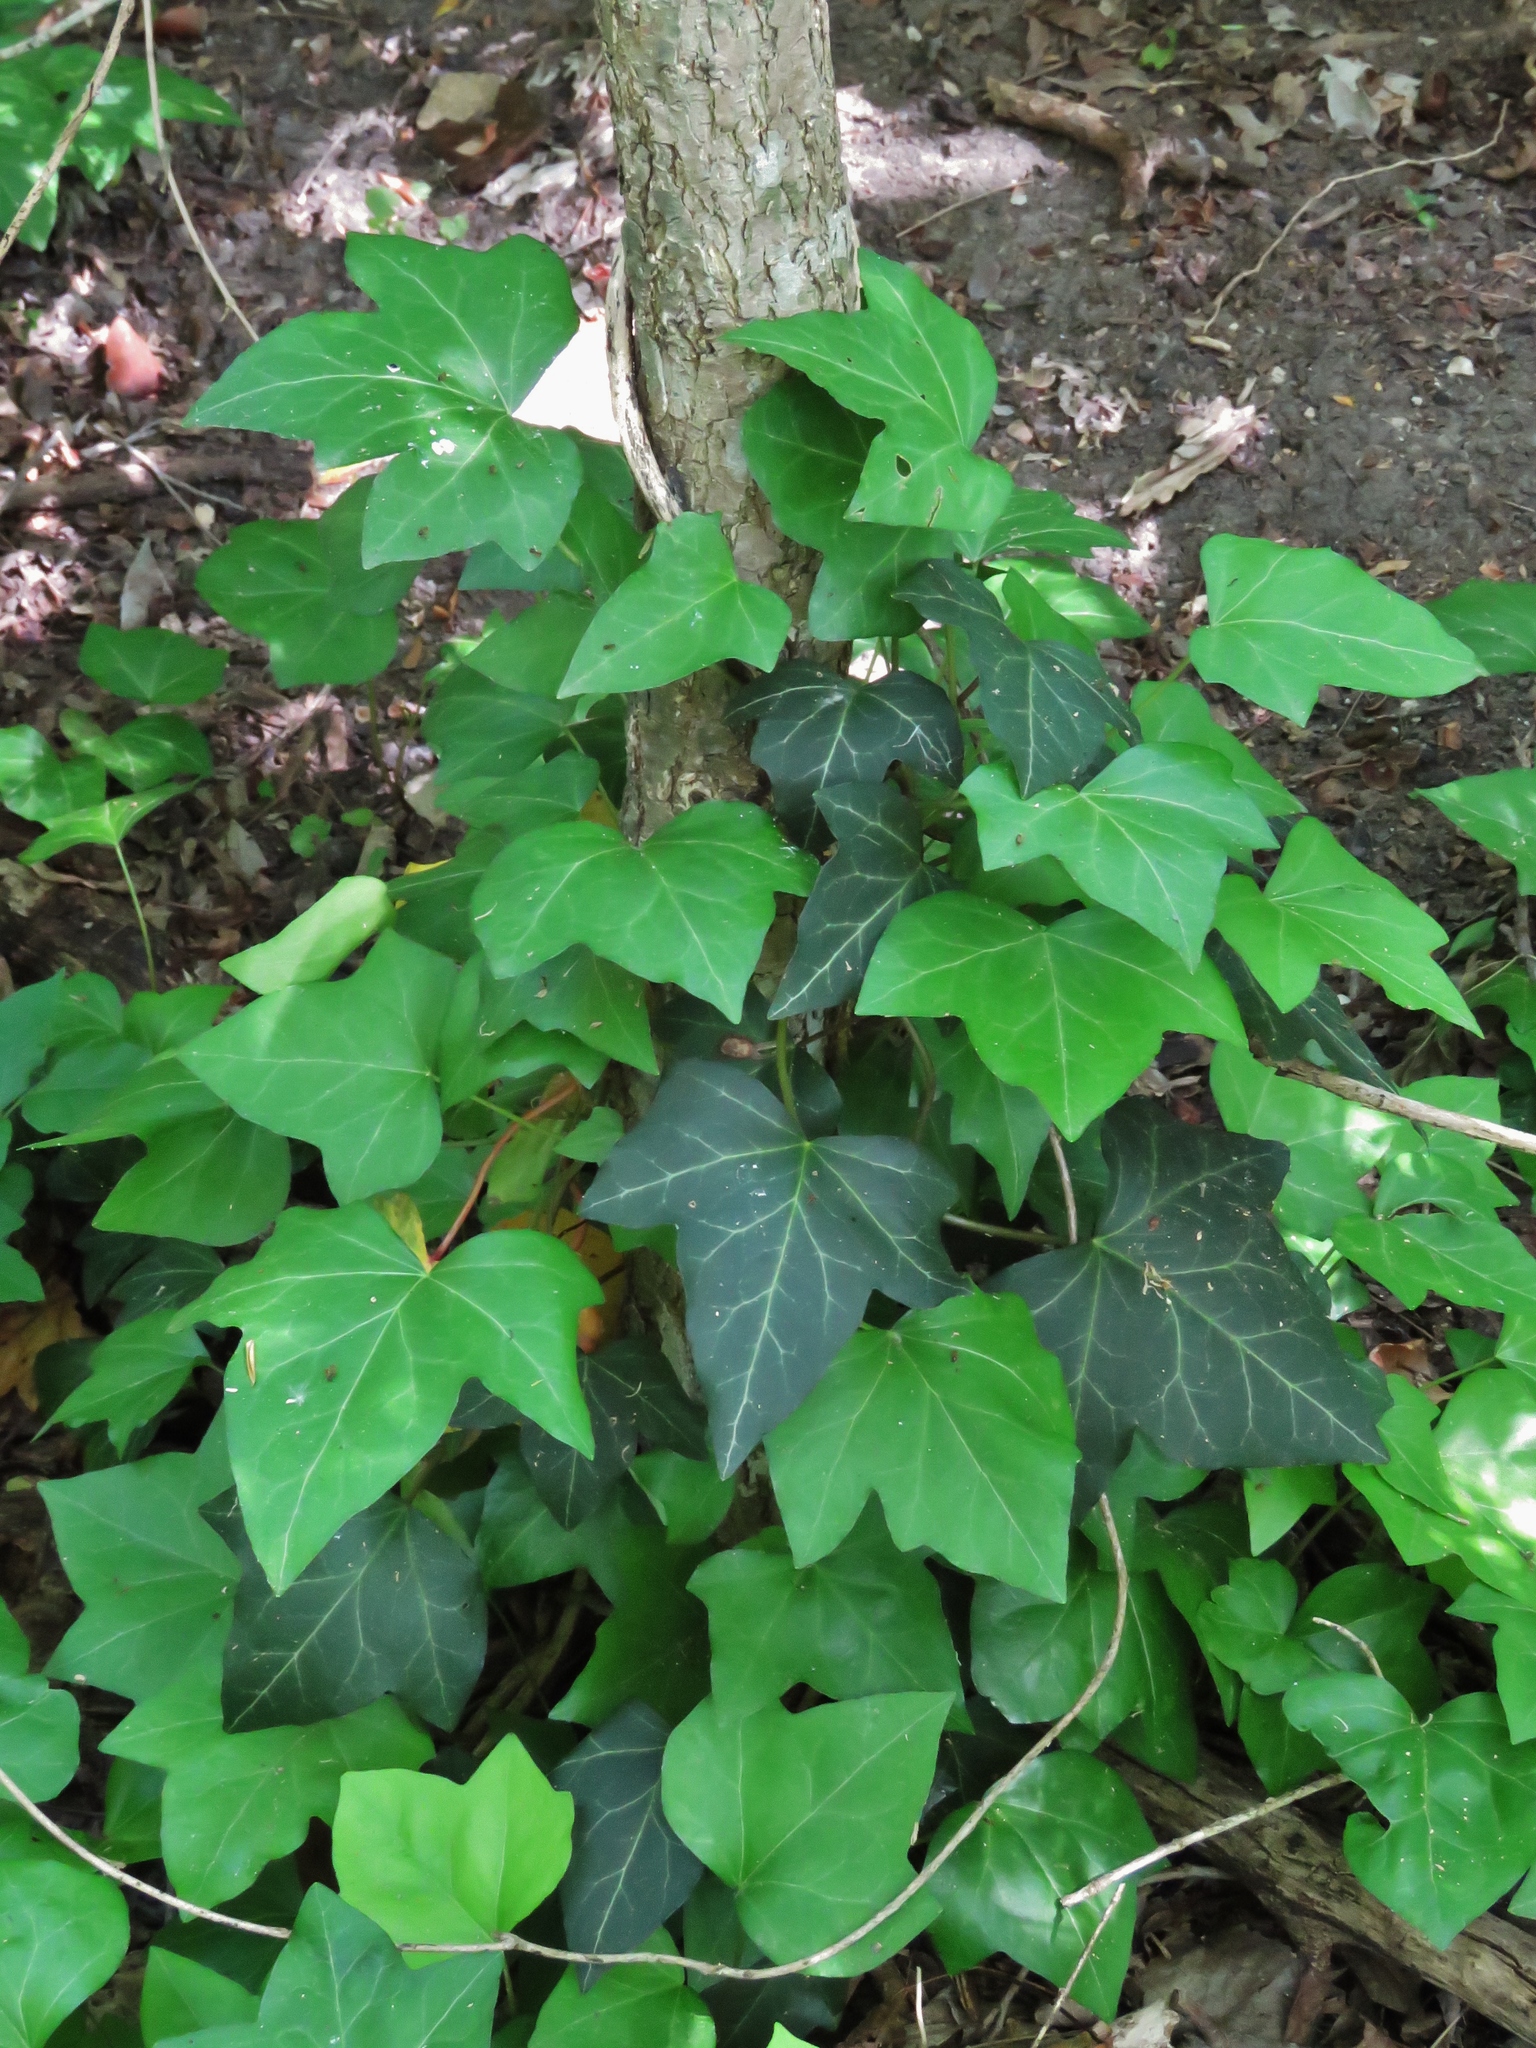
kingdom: Plantae
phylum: Tracheophyta
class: Magnoliopsida
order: Apiales
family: Araliaceae
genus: Hedera
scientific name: Hedera helix
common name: Ivy
